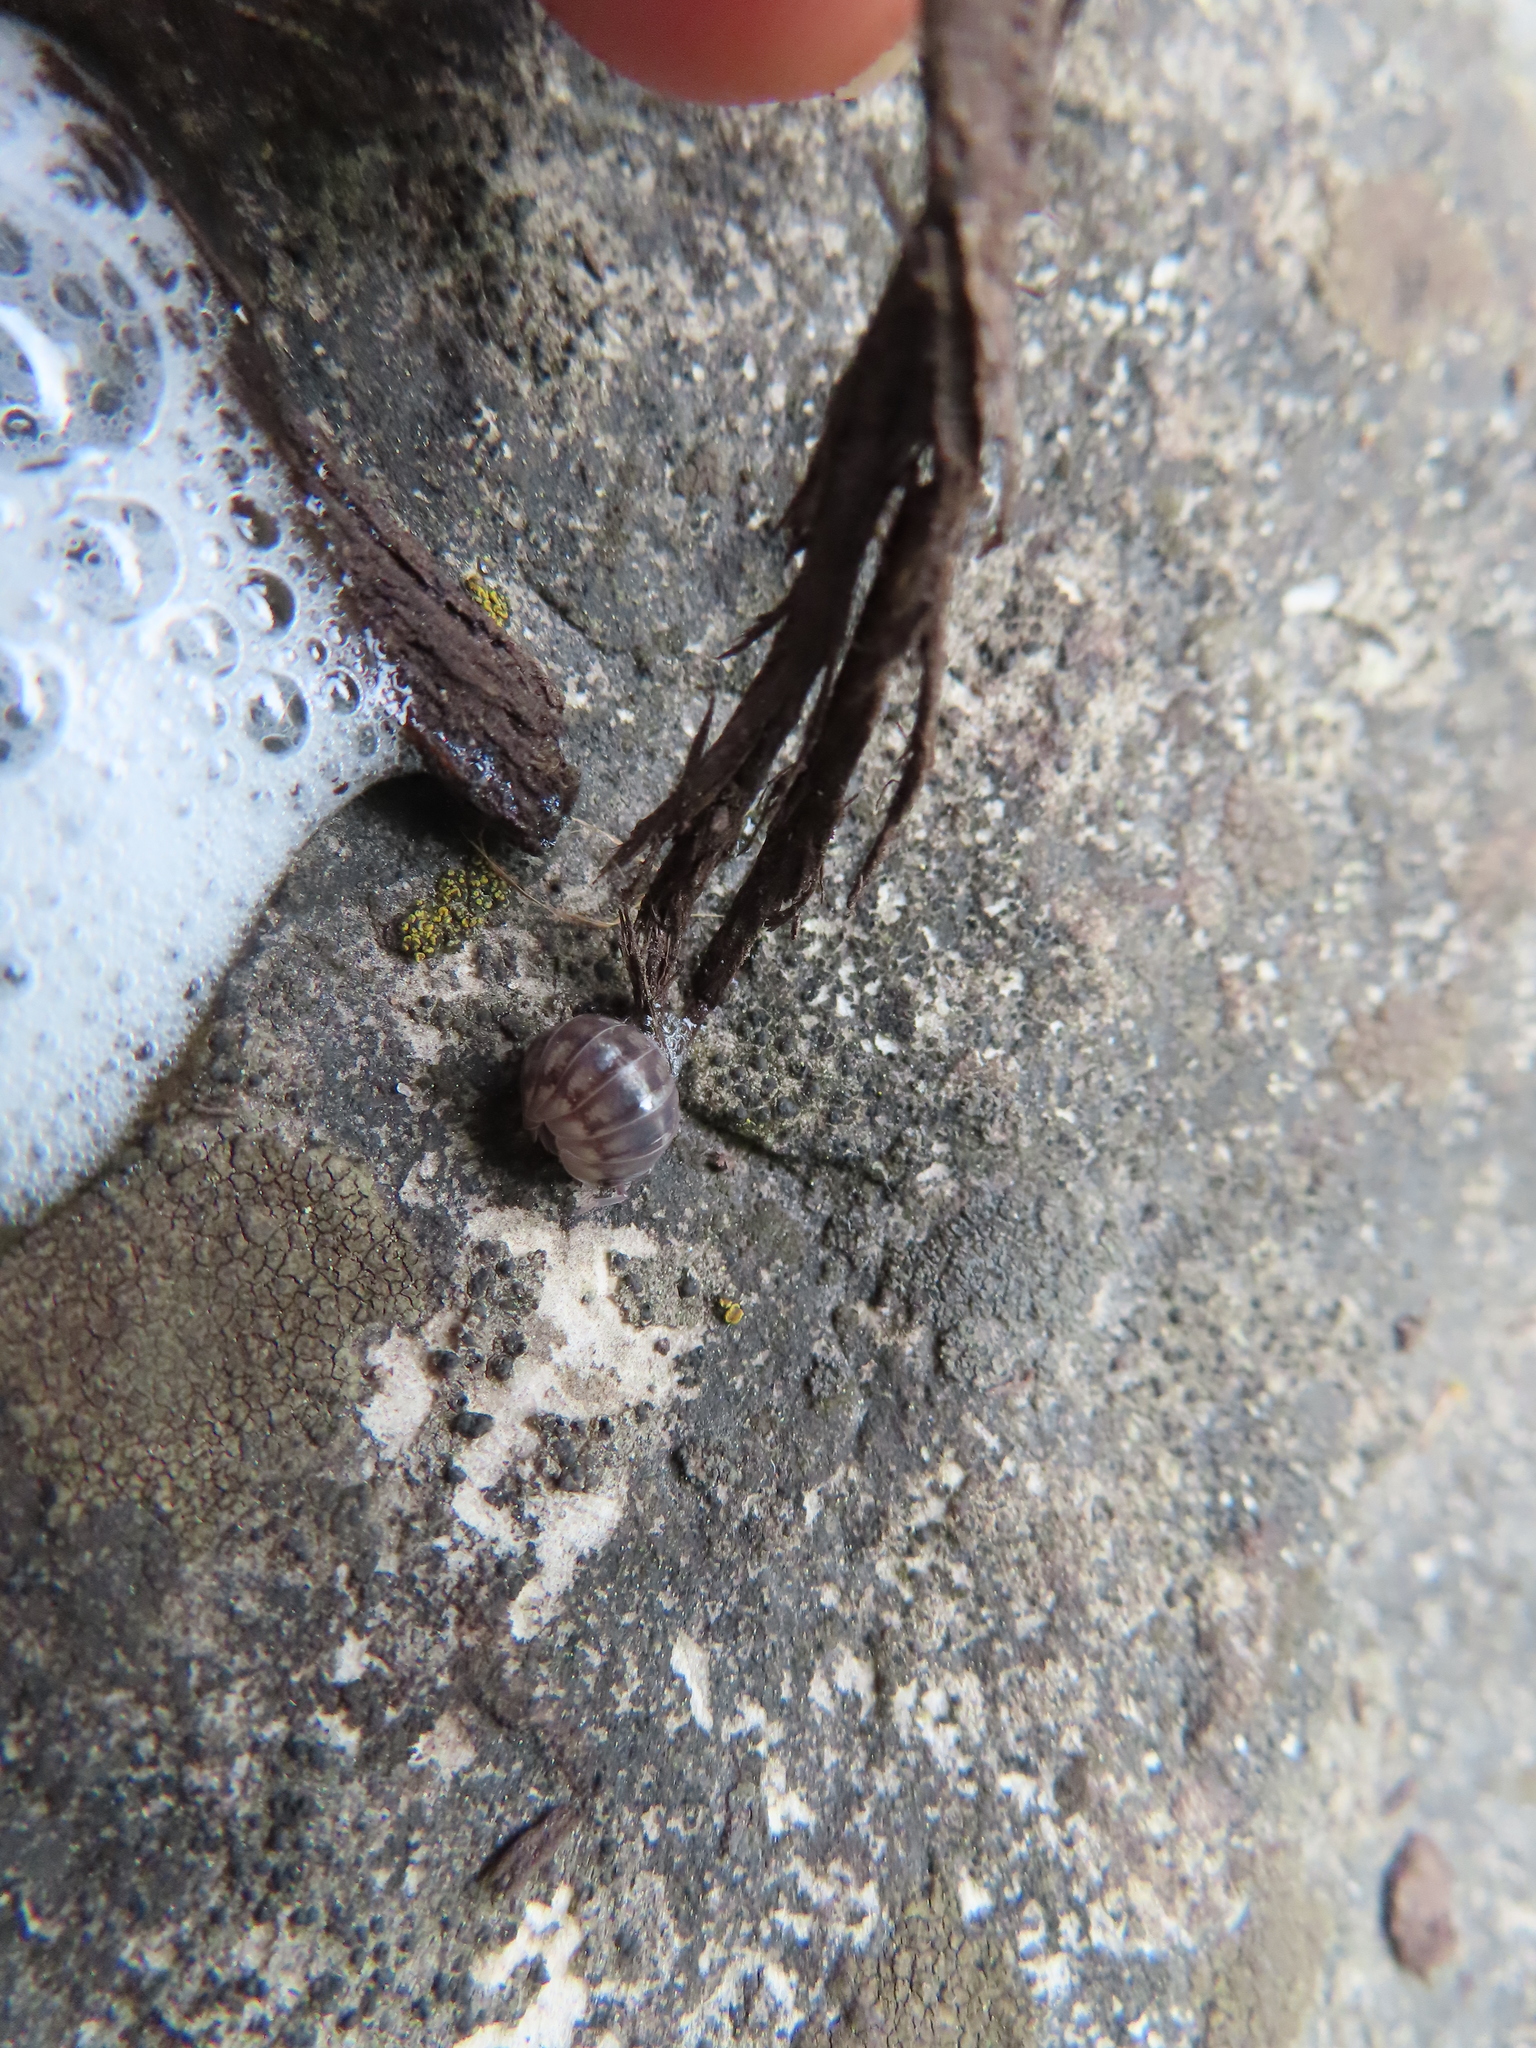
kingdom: Animalia
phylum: Arthropoda
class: Malacostraca
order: Isopoda
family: Armadillidiidae
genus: Armadillidium
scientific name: Armadillidium nasatum
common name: Isopod
